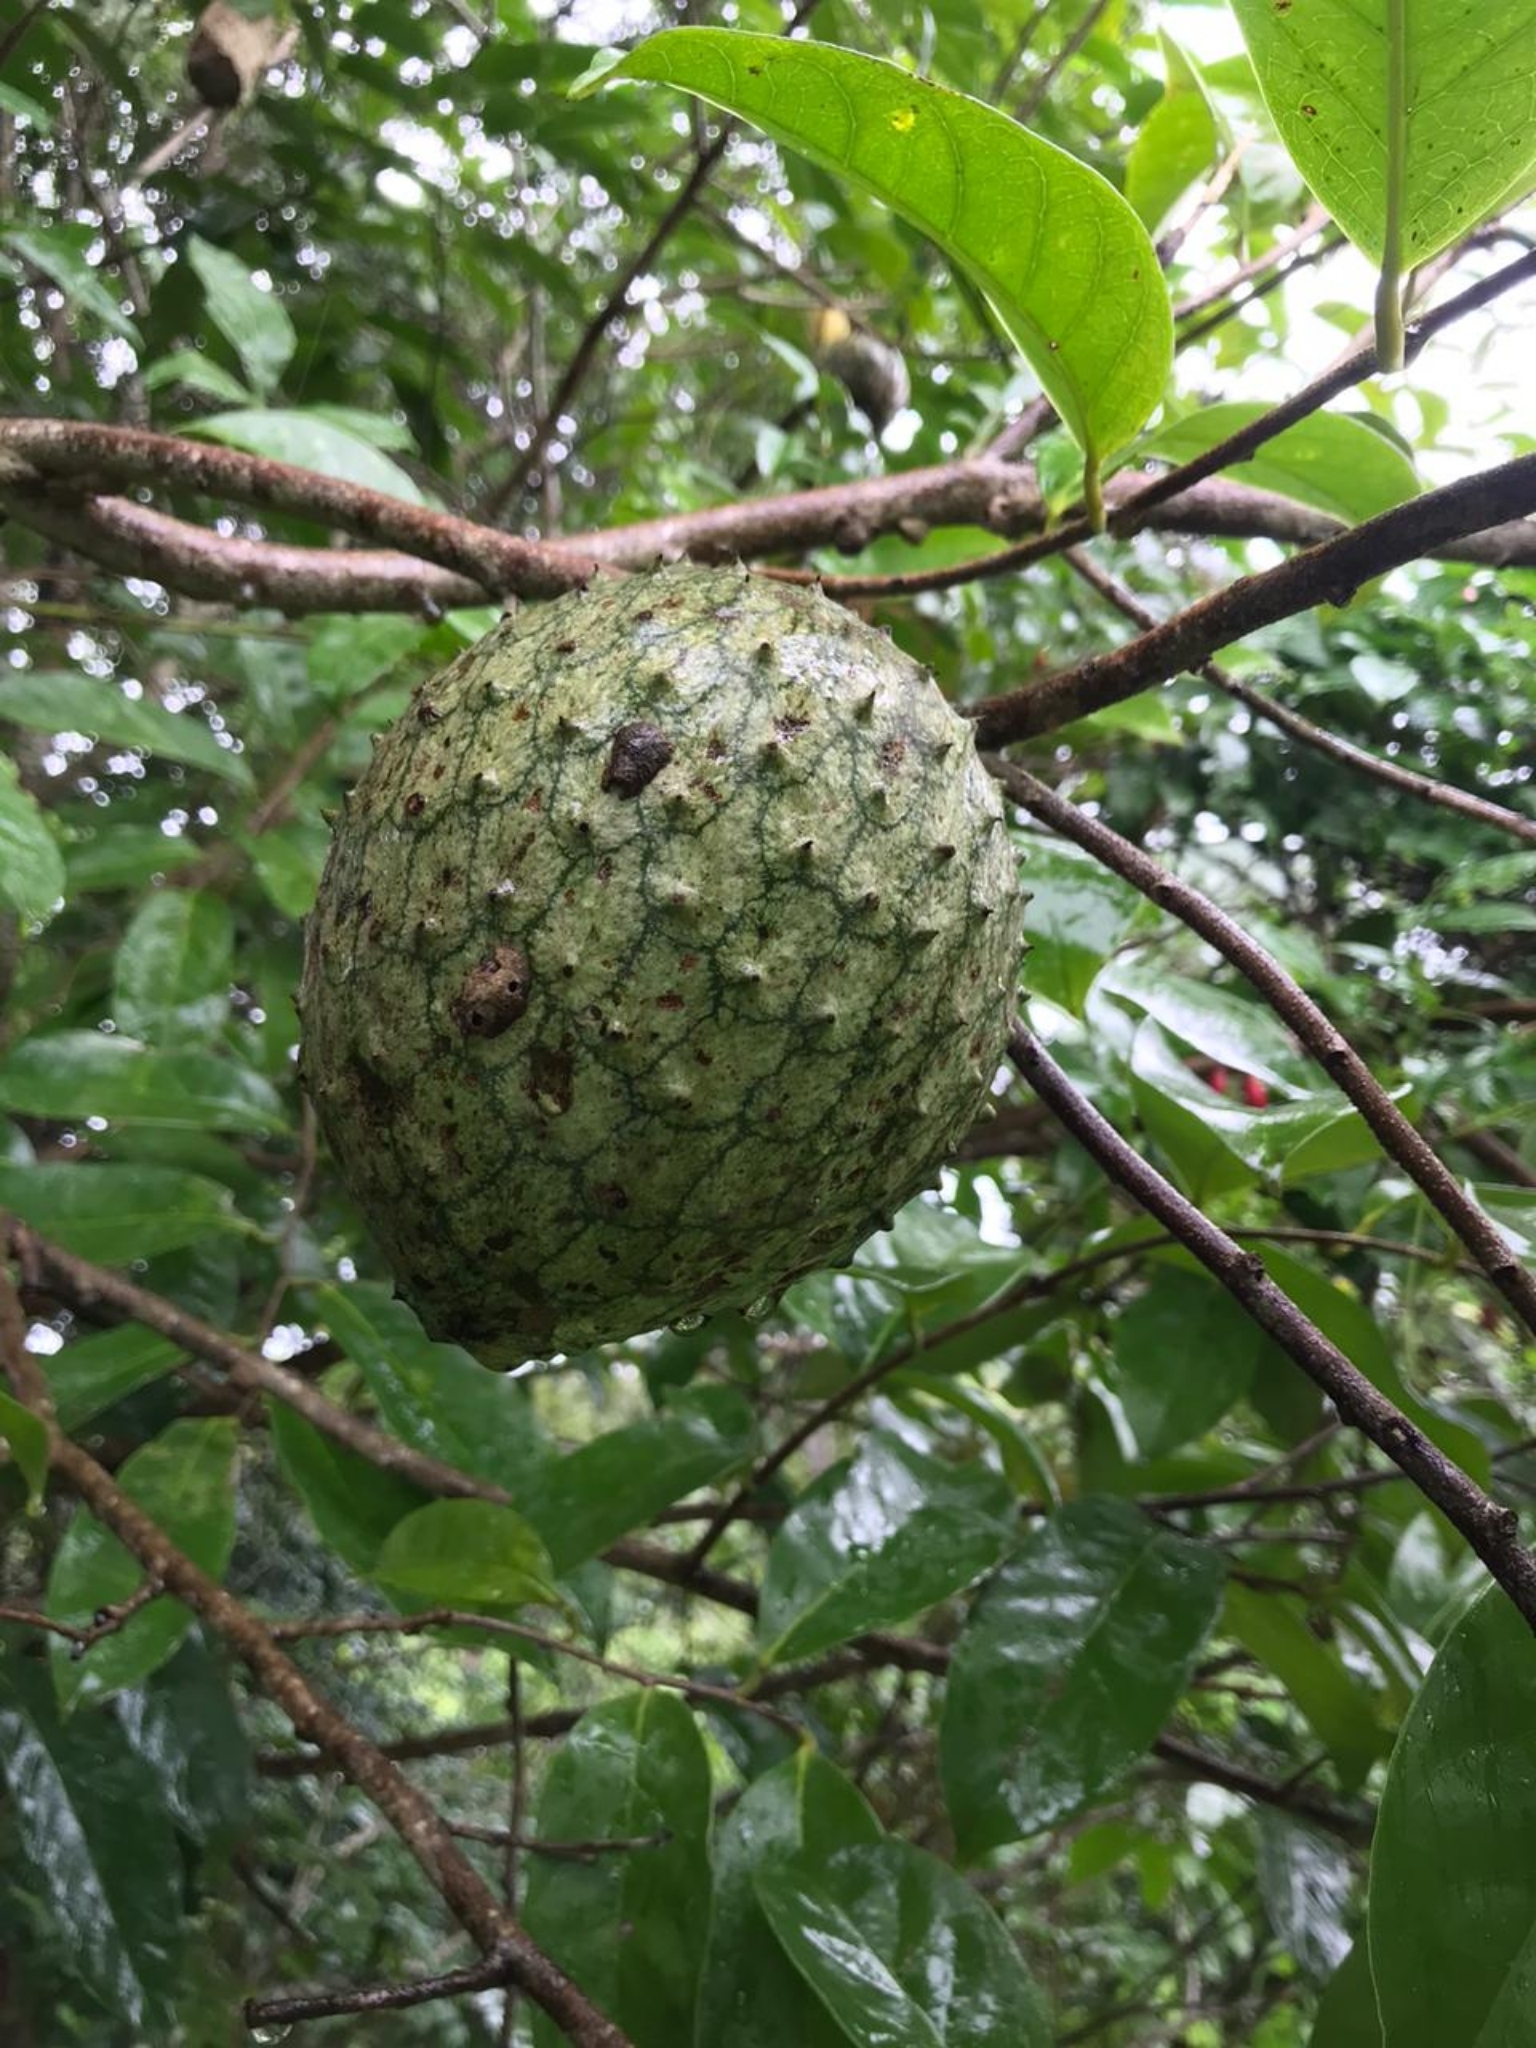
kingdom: Plantae
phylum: Tracheophyta
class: Magnoliopsida
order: Magnoliales
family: Annonaceae
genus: Annona
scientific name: Annona montana
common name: Mountain soursop
